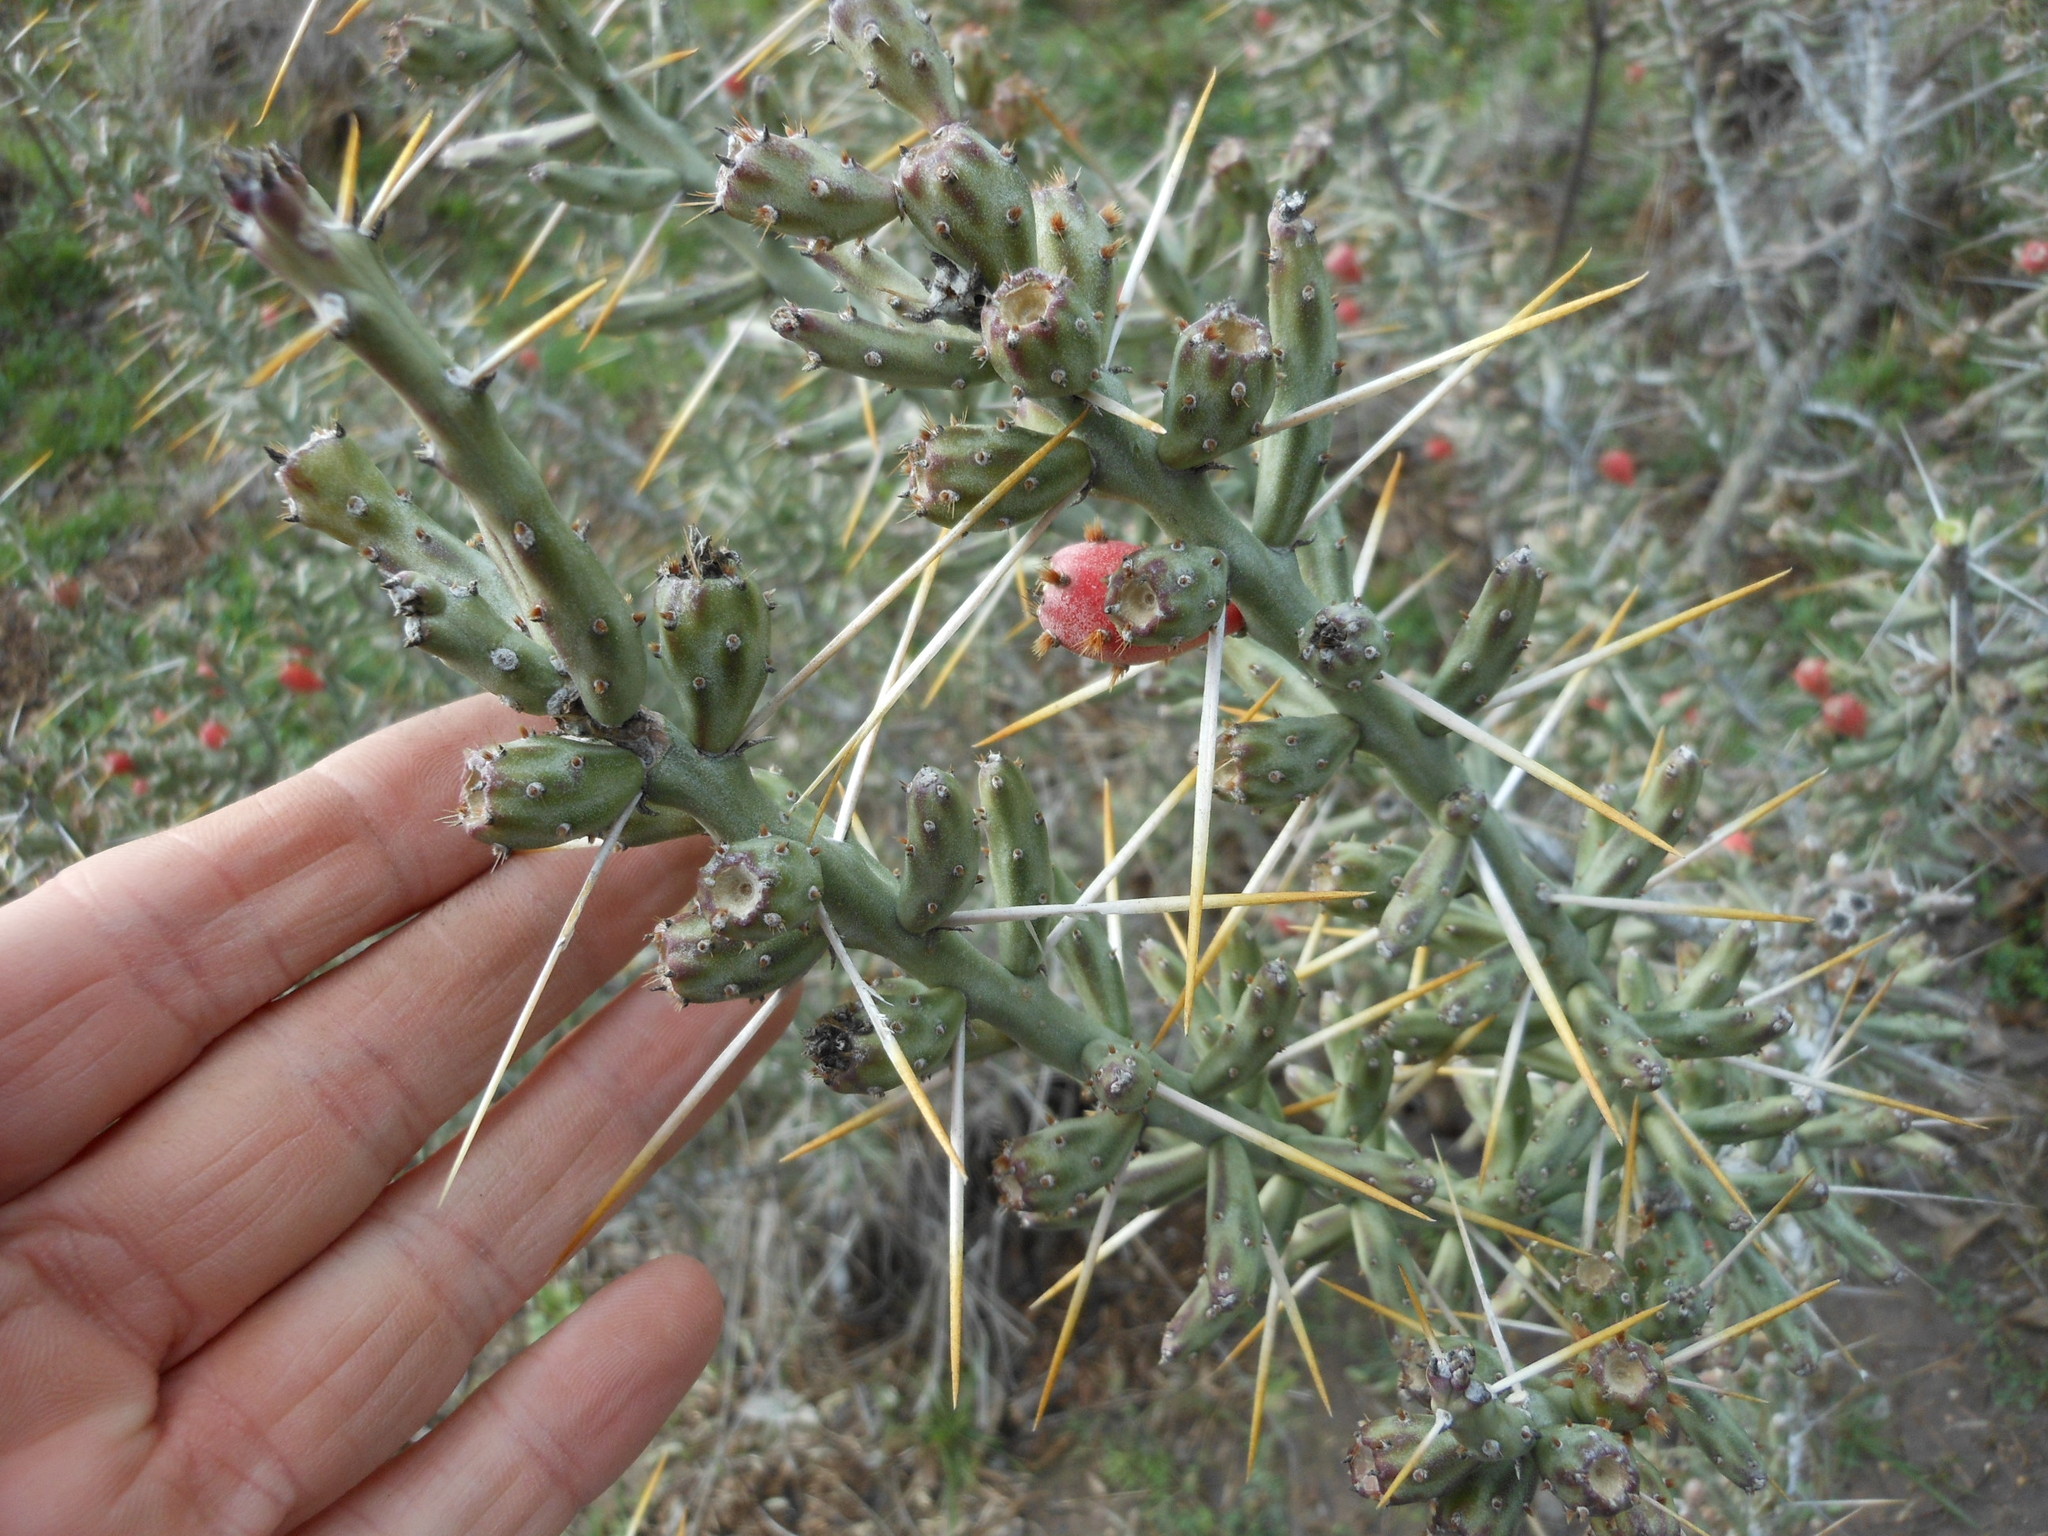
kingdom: Plantae
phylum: Tracheophyta
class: Magnoliopsida
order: Caryophyllales
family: Cactaceae
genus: Cylindropuntia
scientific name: Cylindropuntia leptocaulis
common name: Christmas cactus
